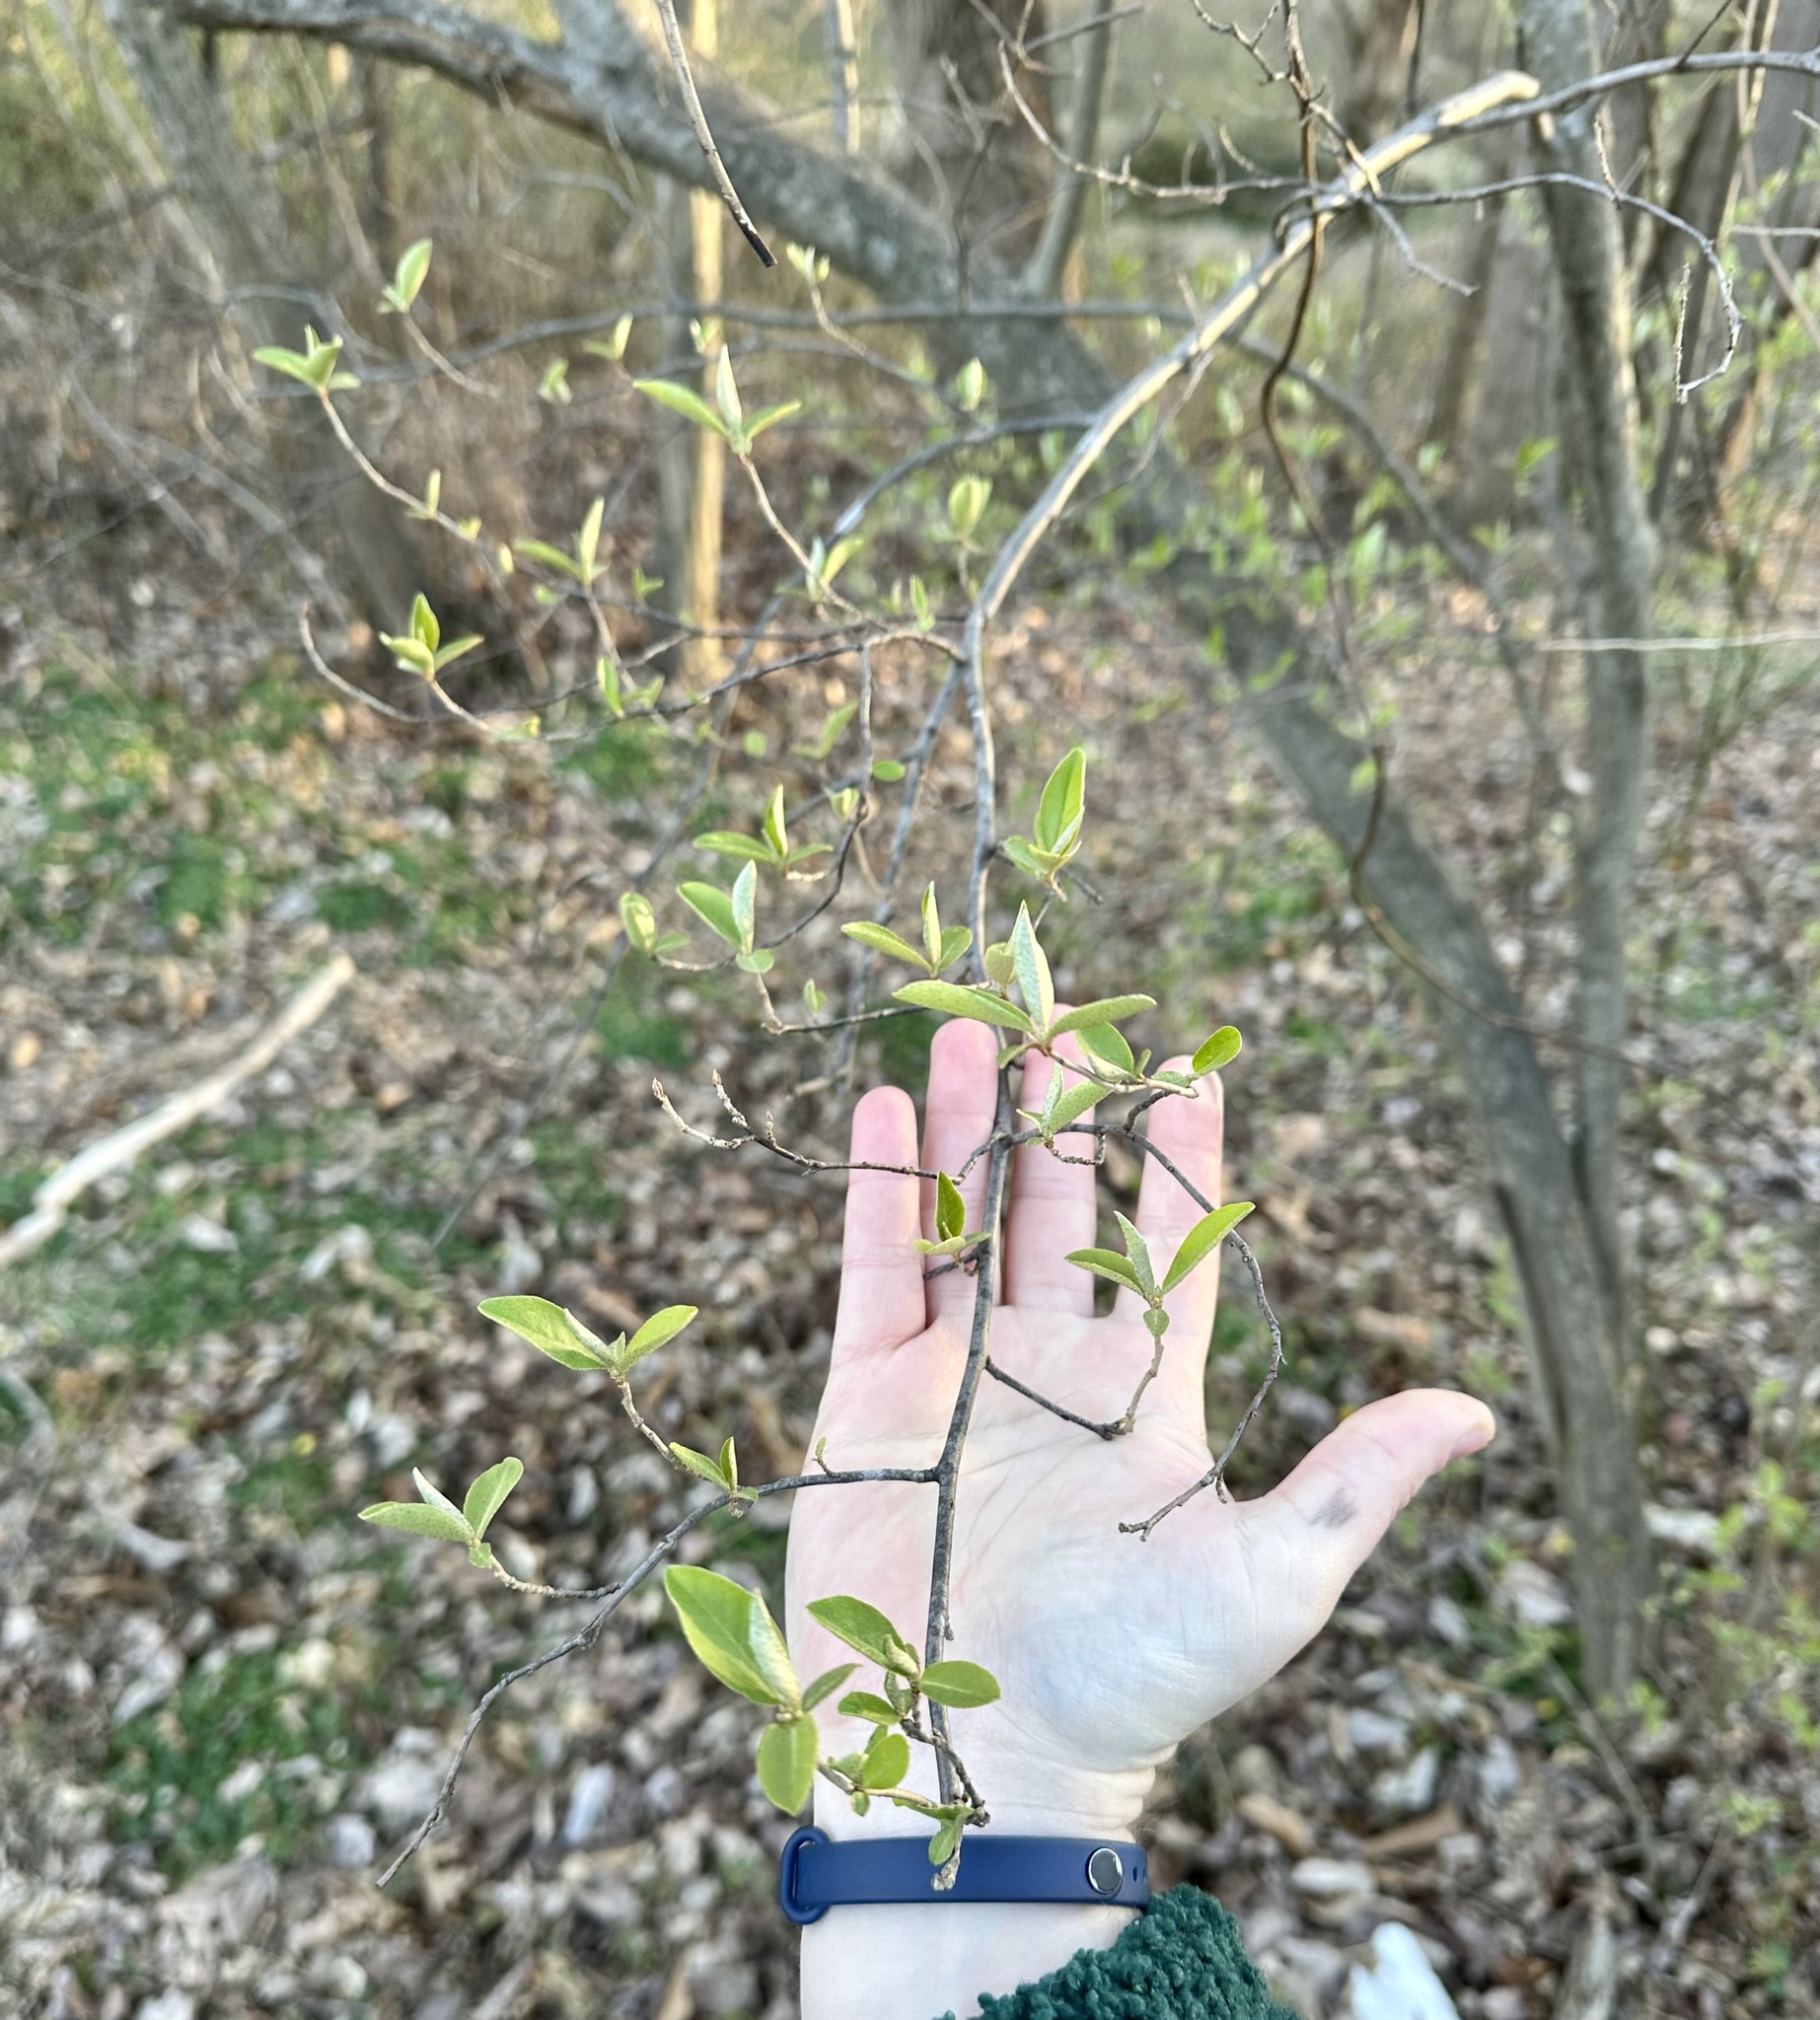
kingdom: Plantae
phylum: Tracheophyta
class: Magnoliopsida
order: Rosales
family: Elaeagnaceae
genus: Elaeagnus
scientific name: Elaeagnus umbellata
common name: Autumn olive
